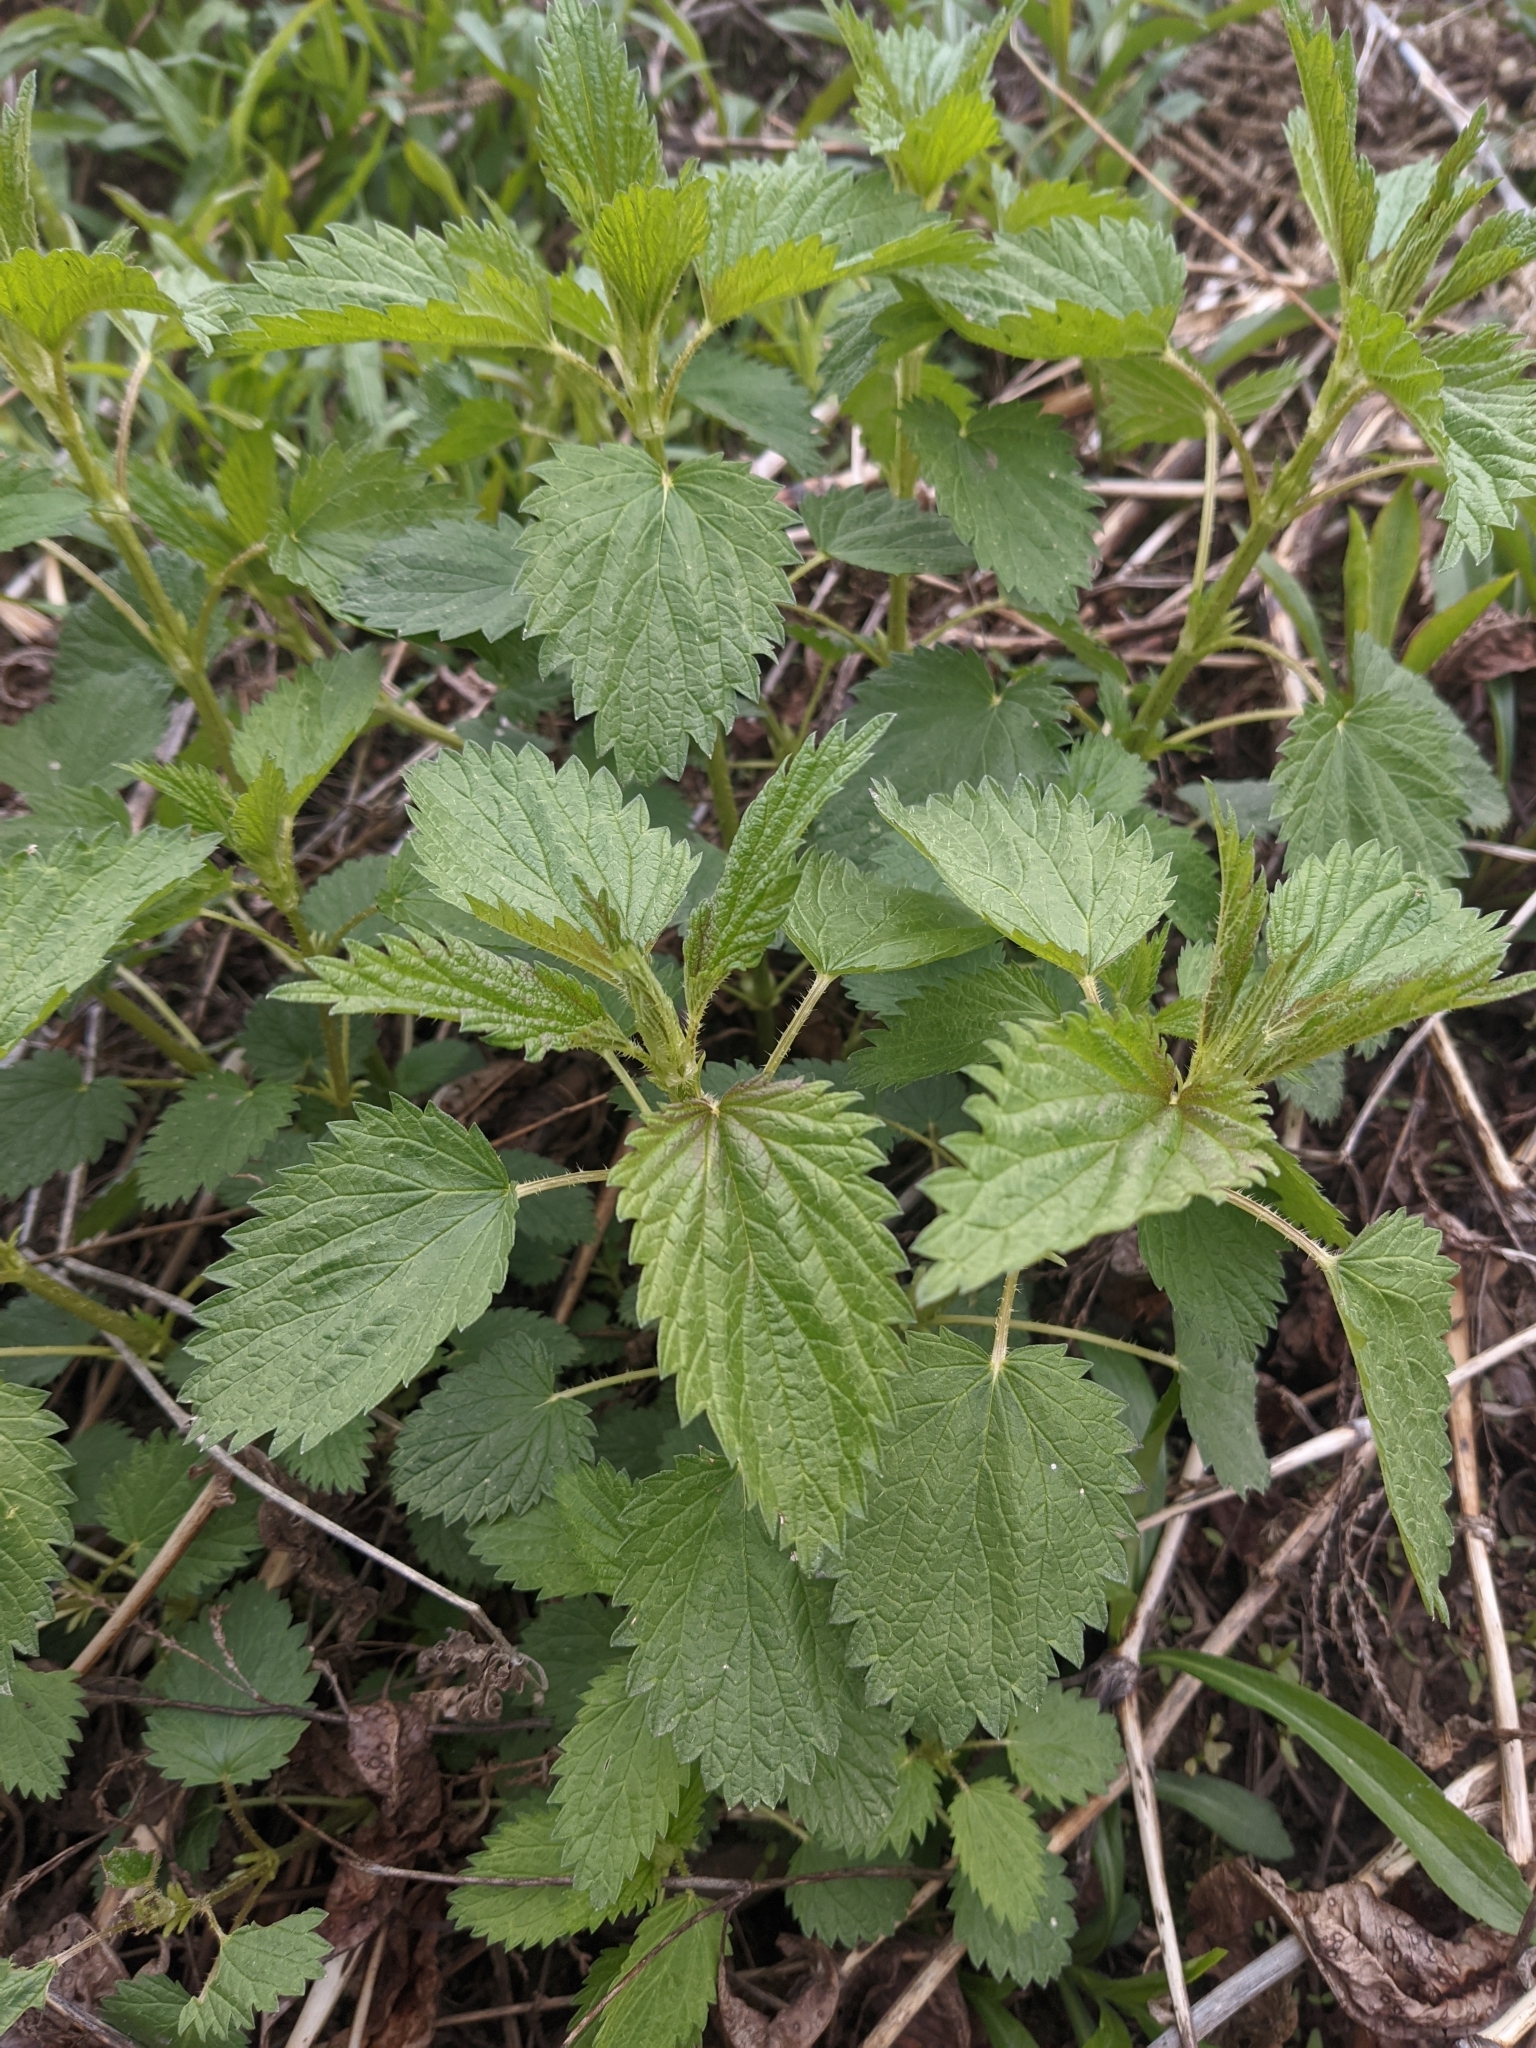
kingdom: Plantae
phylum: Tracheophyta
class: Magnoliopsida
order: Rosales
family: Urticaceae
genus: Urtica
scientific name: Urtica dioica
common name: Common nettle
